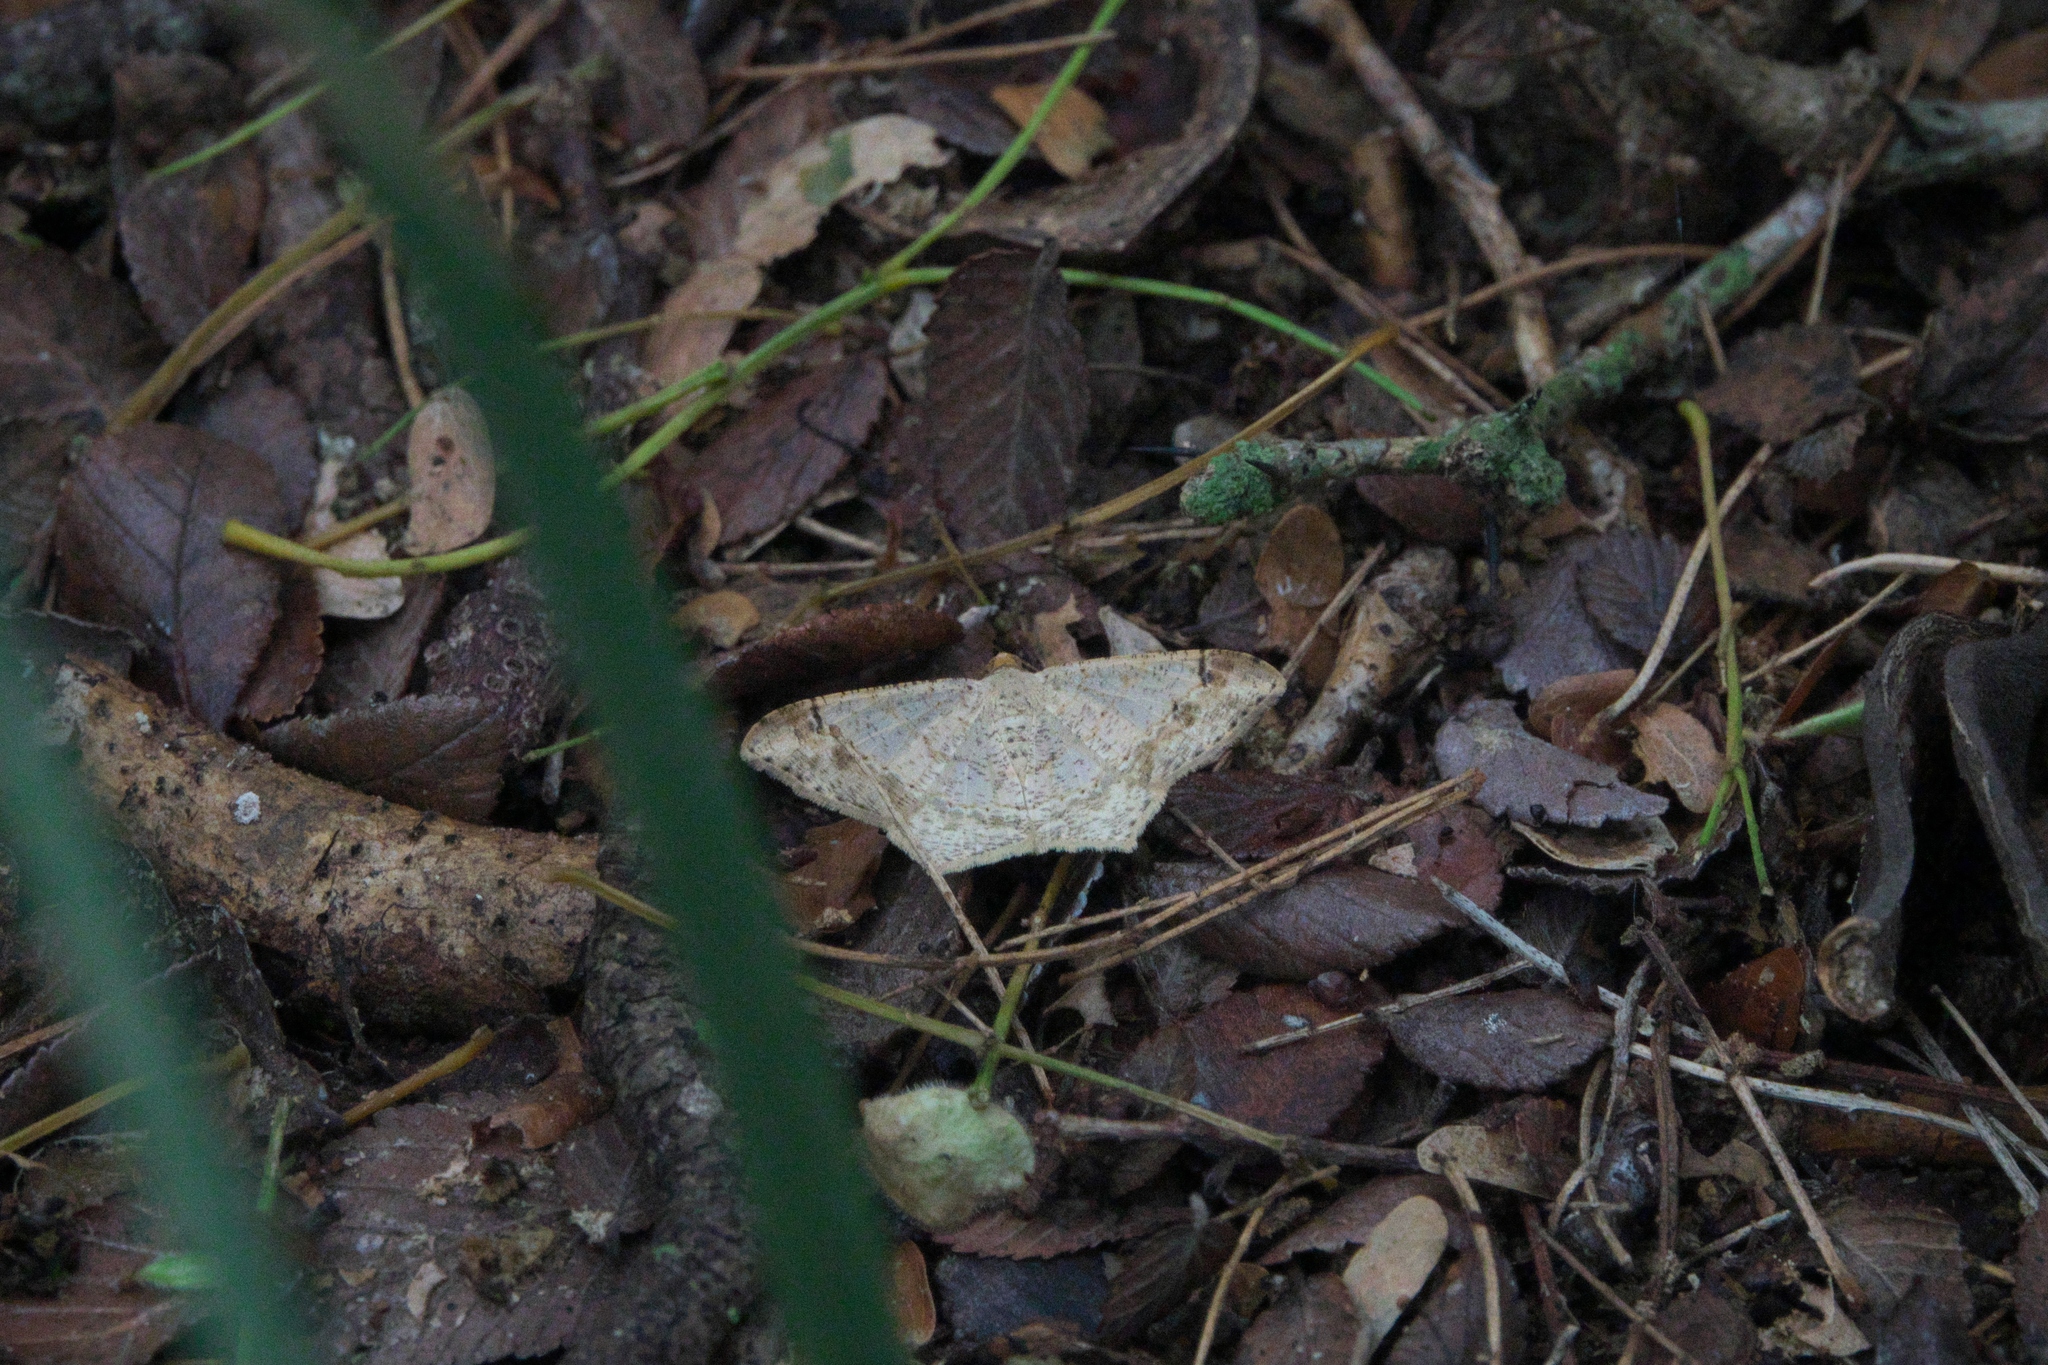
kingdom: Animalia
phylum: Arthropoda
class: Insecta
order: Lepidoptera
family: Geometridae
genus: Macaria
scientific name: Macaria abydata
